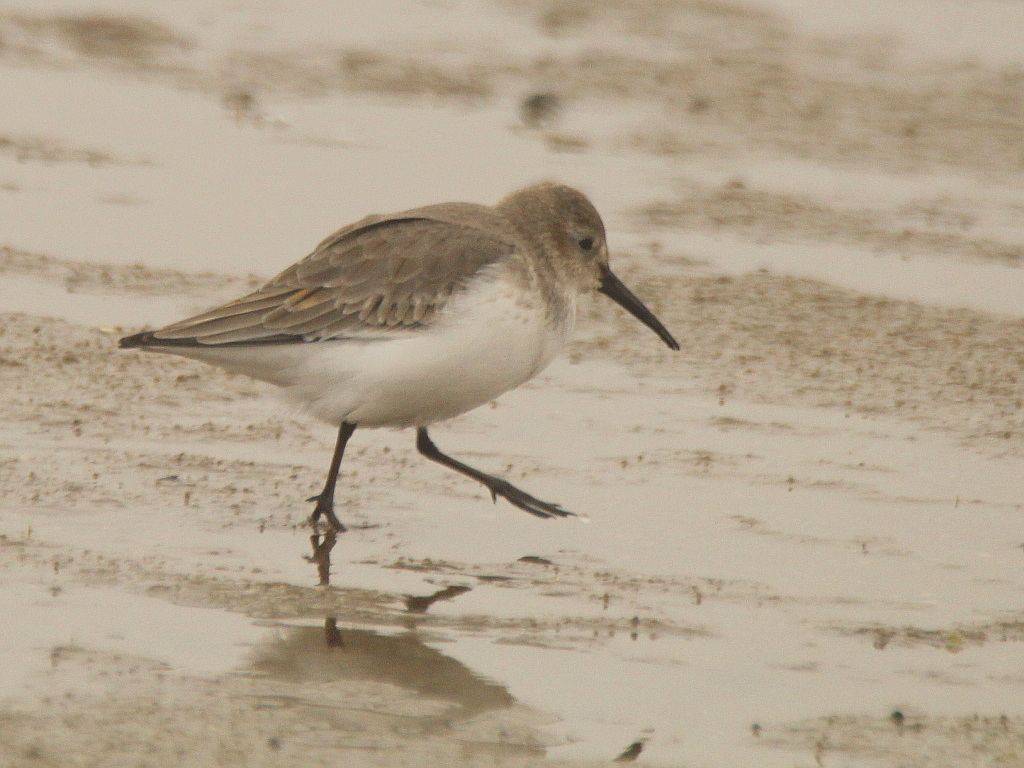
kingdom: Animalia
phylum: Chordata
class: Aves
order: Charadriiformes
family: Scolopacidae
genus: Calidris
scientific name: Calidris alpina
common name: Dunlin
